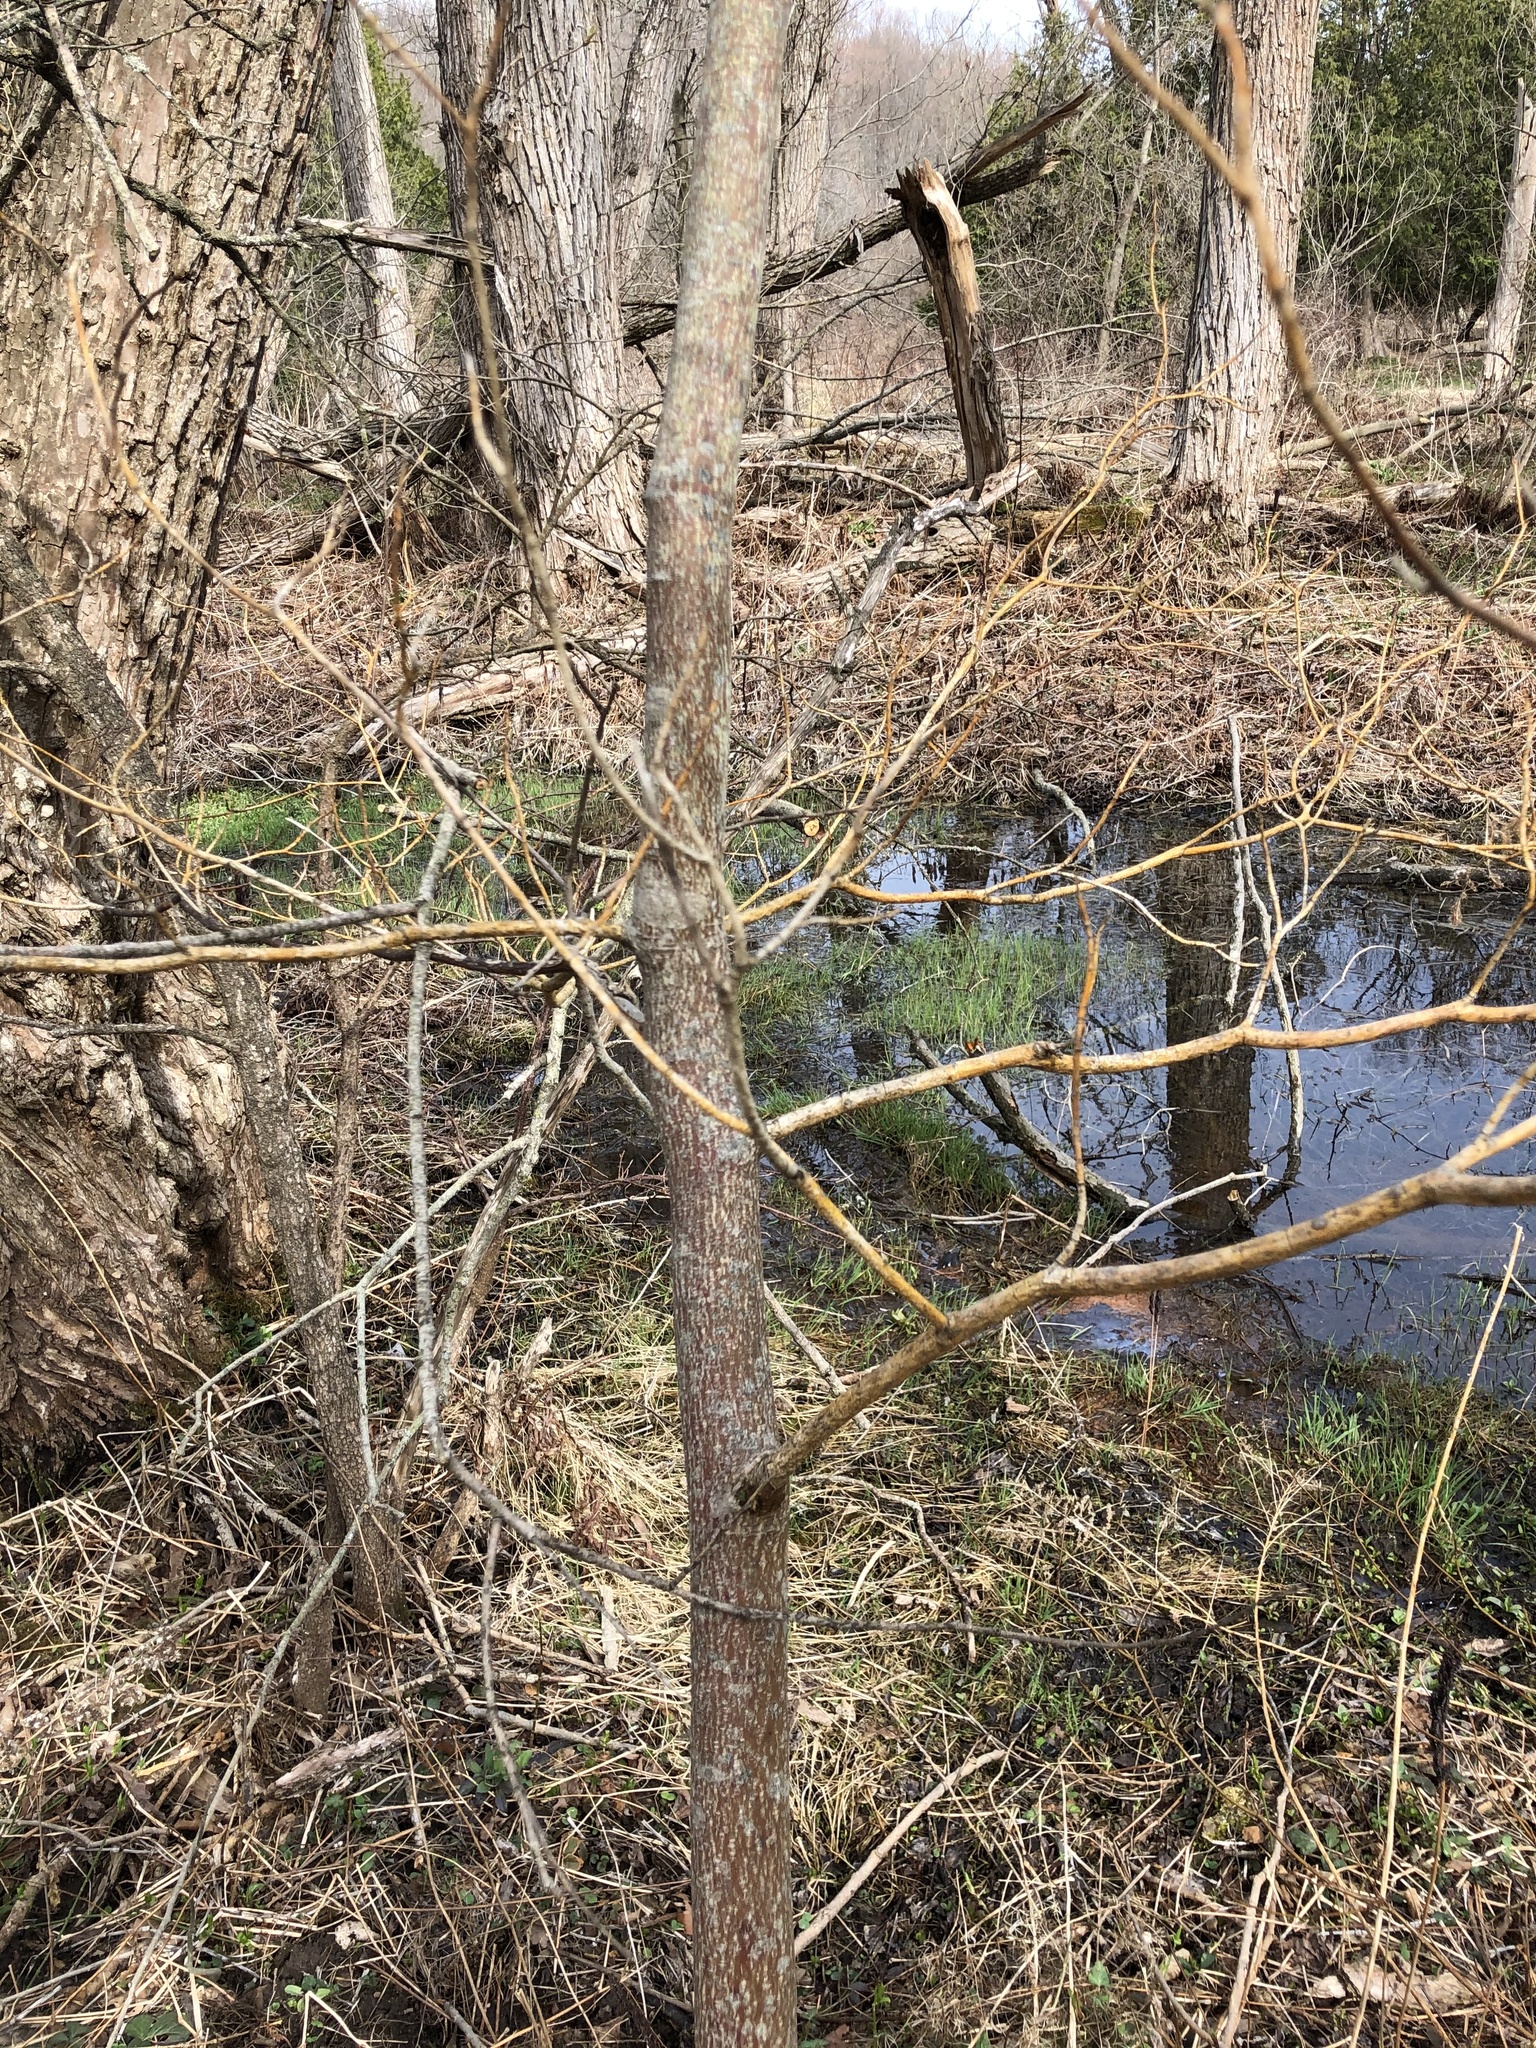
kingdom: Plantae
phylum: Tracheophyta
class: Magnoliopsida
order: Cornales
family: Cornaceae
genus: Cornus
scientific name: Cornus alternifolia
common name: Pagoda dogwood
